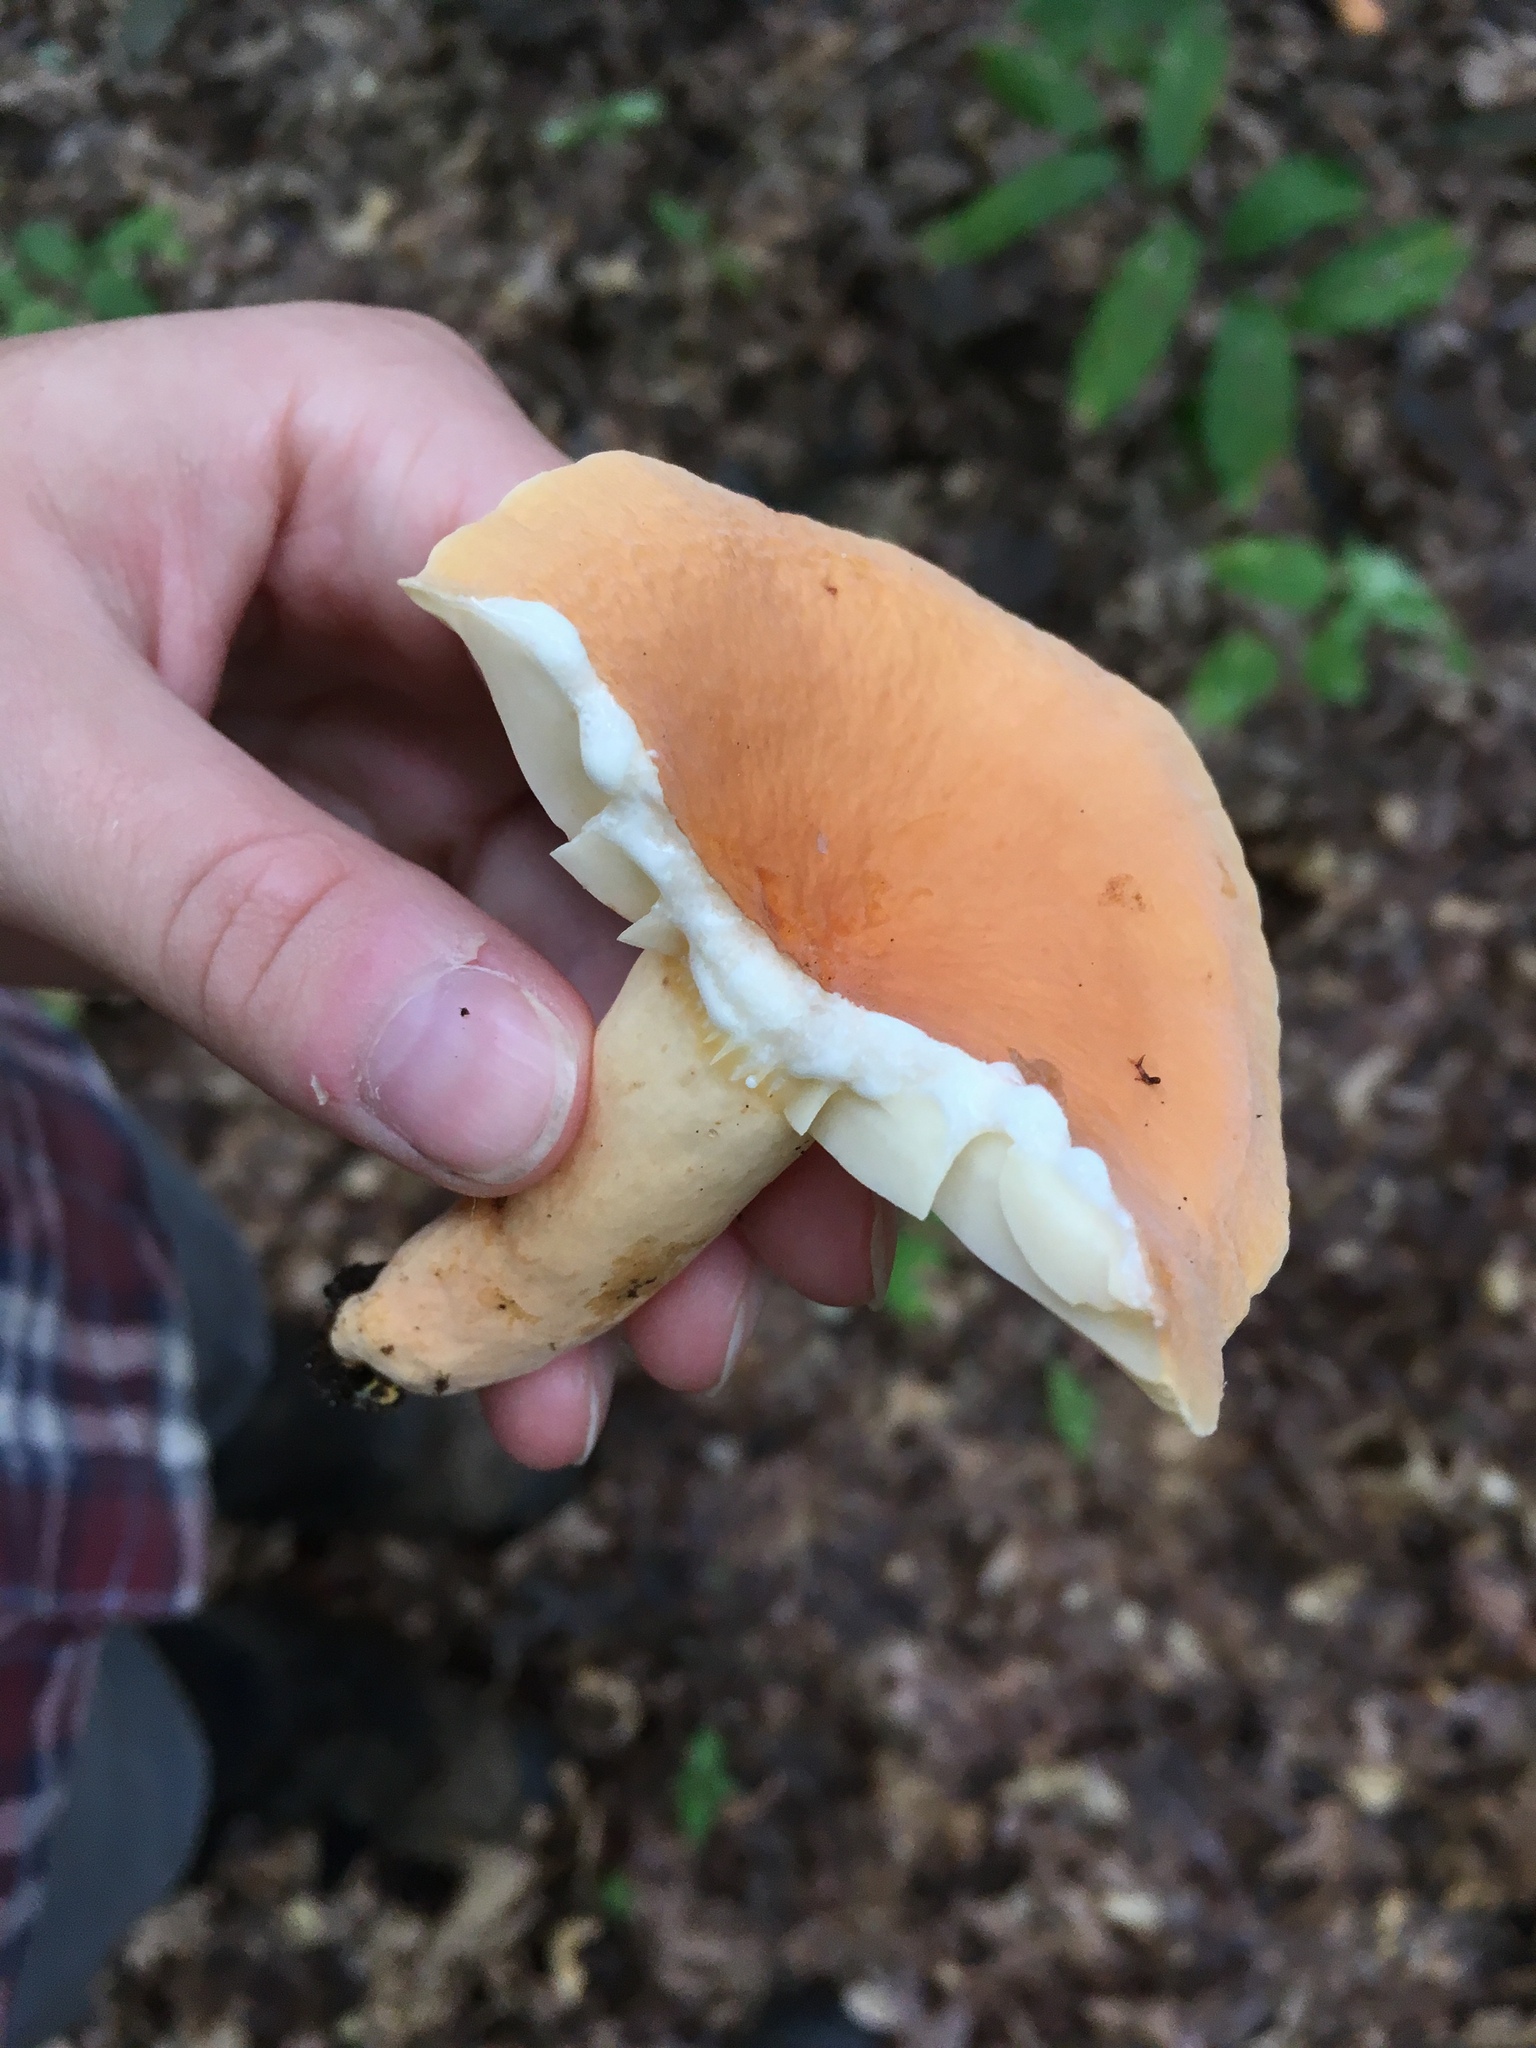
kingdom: Fungi
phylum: Basidiomycota
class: Agaricomycetes
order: Russulales
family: Russulaceae
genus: Lactarius
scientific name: Lactarius hygrophoroides
